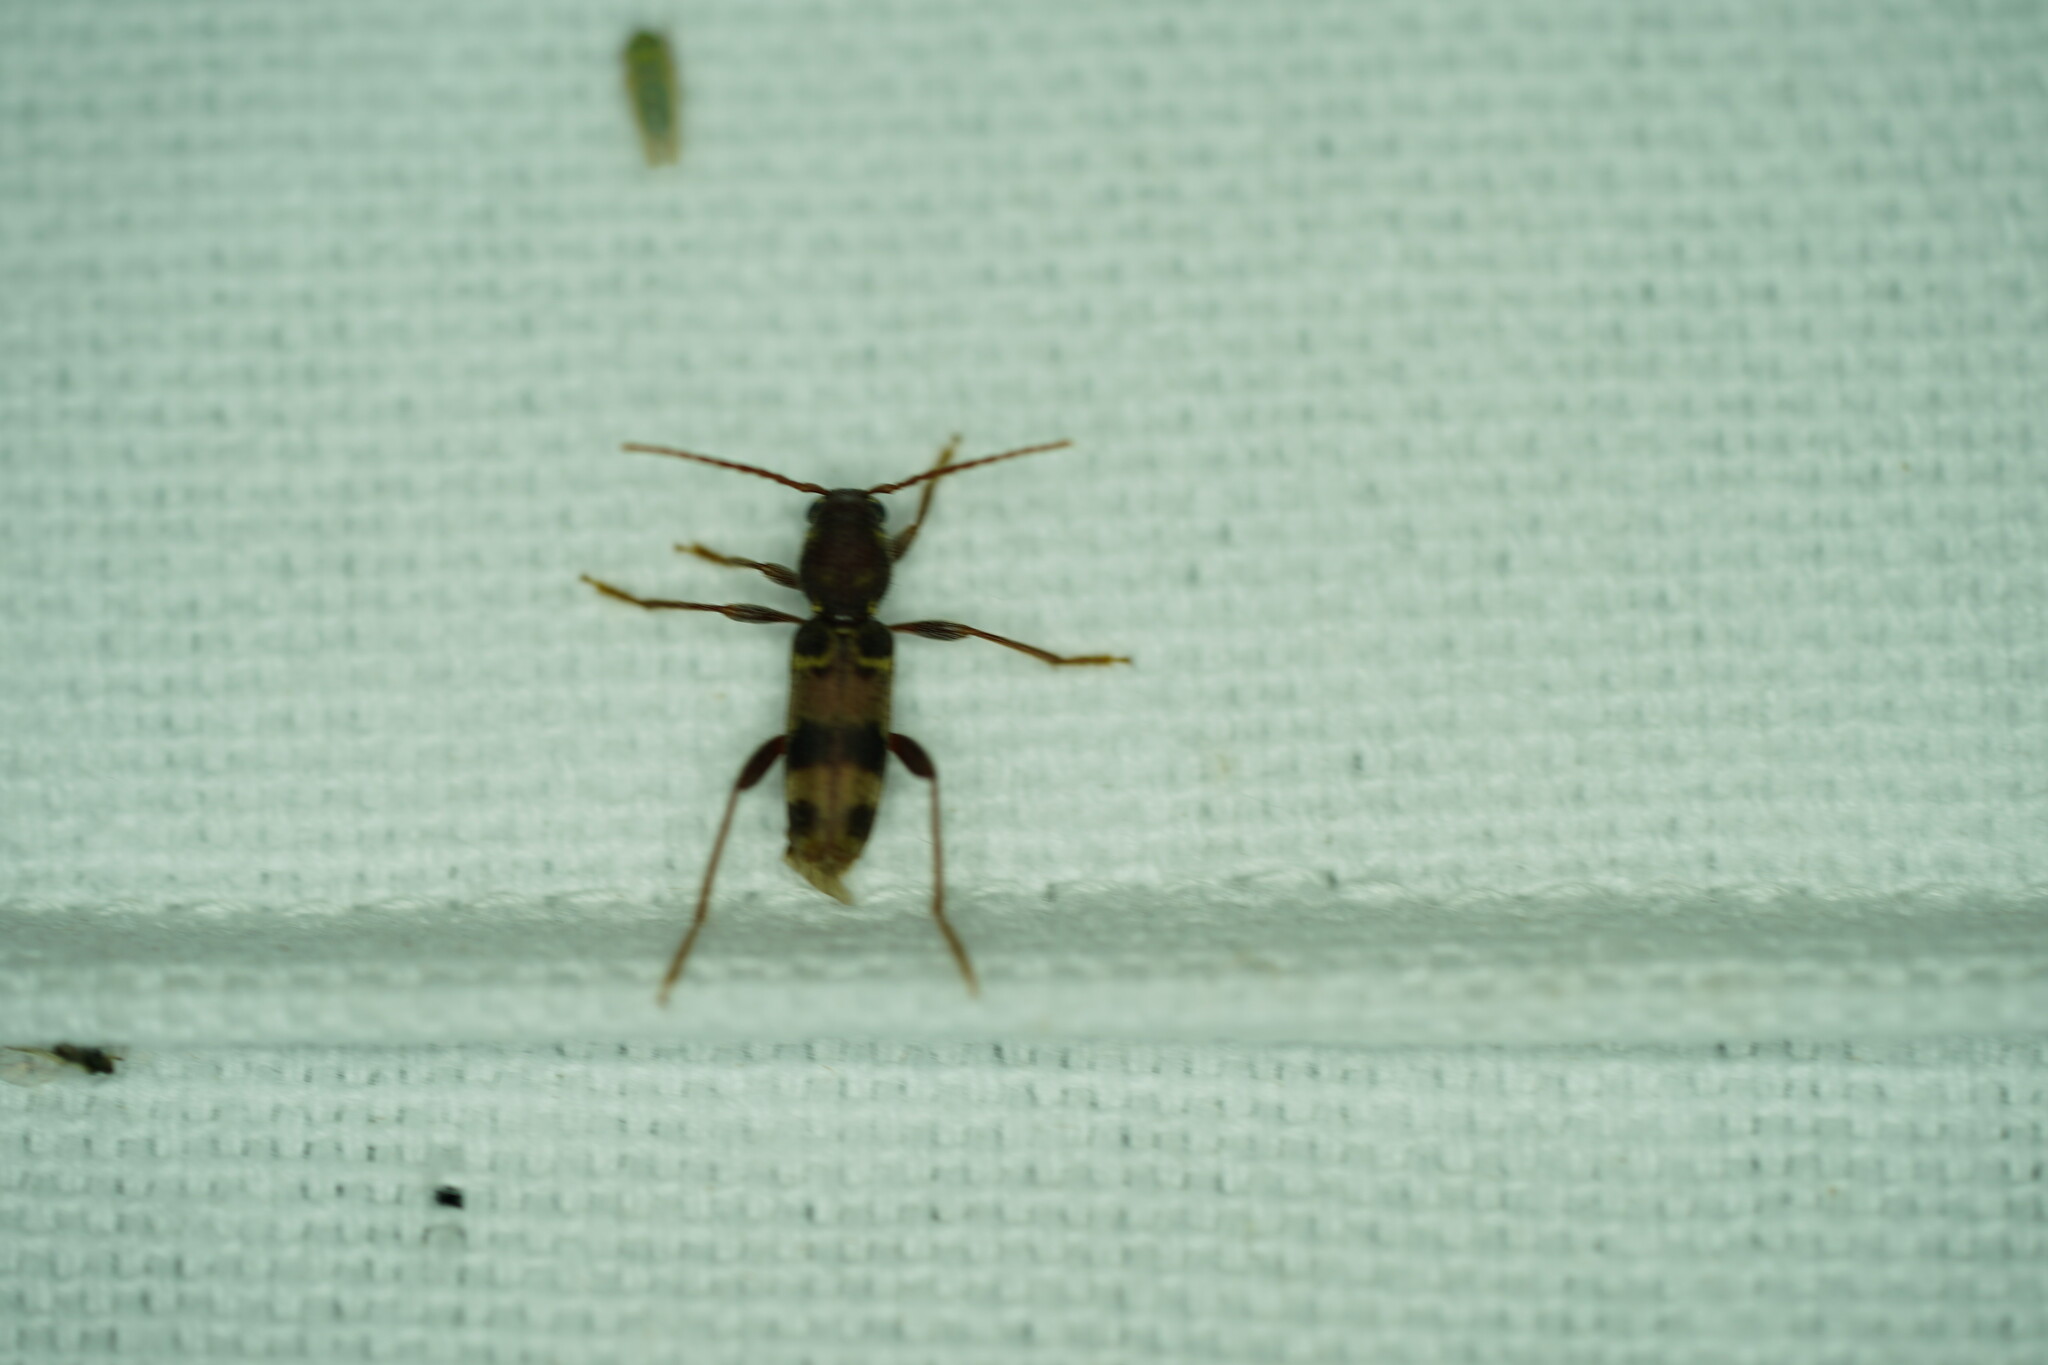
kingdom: Animalia
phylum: Arthropoda
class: Insecta
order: Coleoptera
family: Cerambycidae
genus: Xylotrechus
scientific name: Xylotrechus colonus
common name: Long-horned beetle
